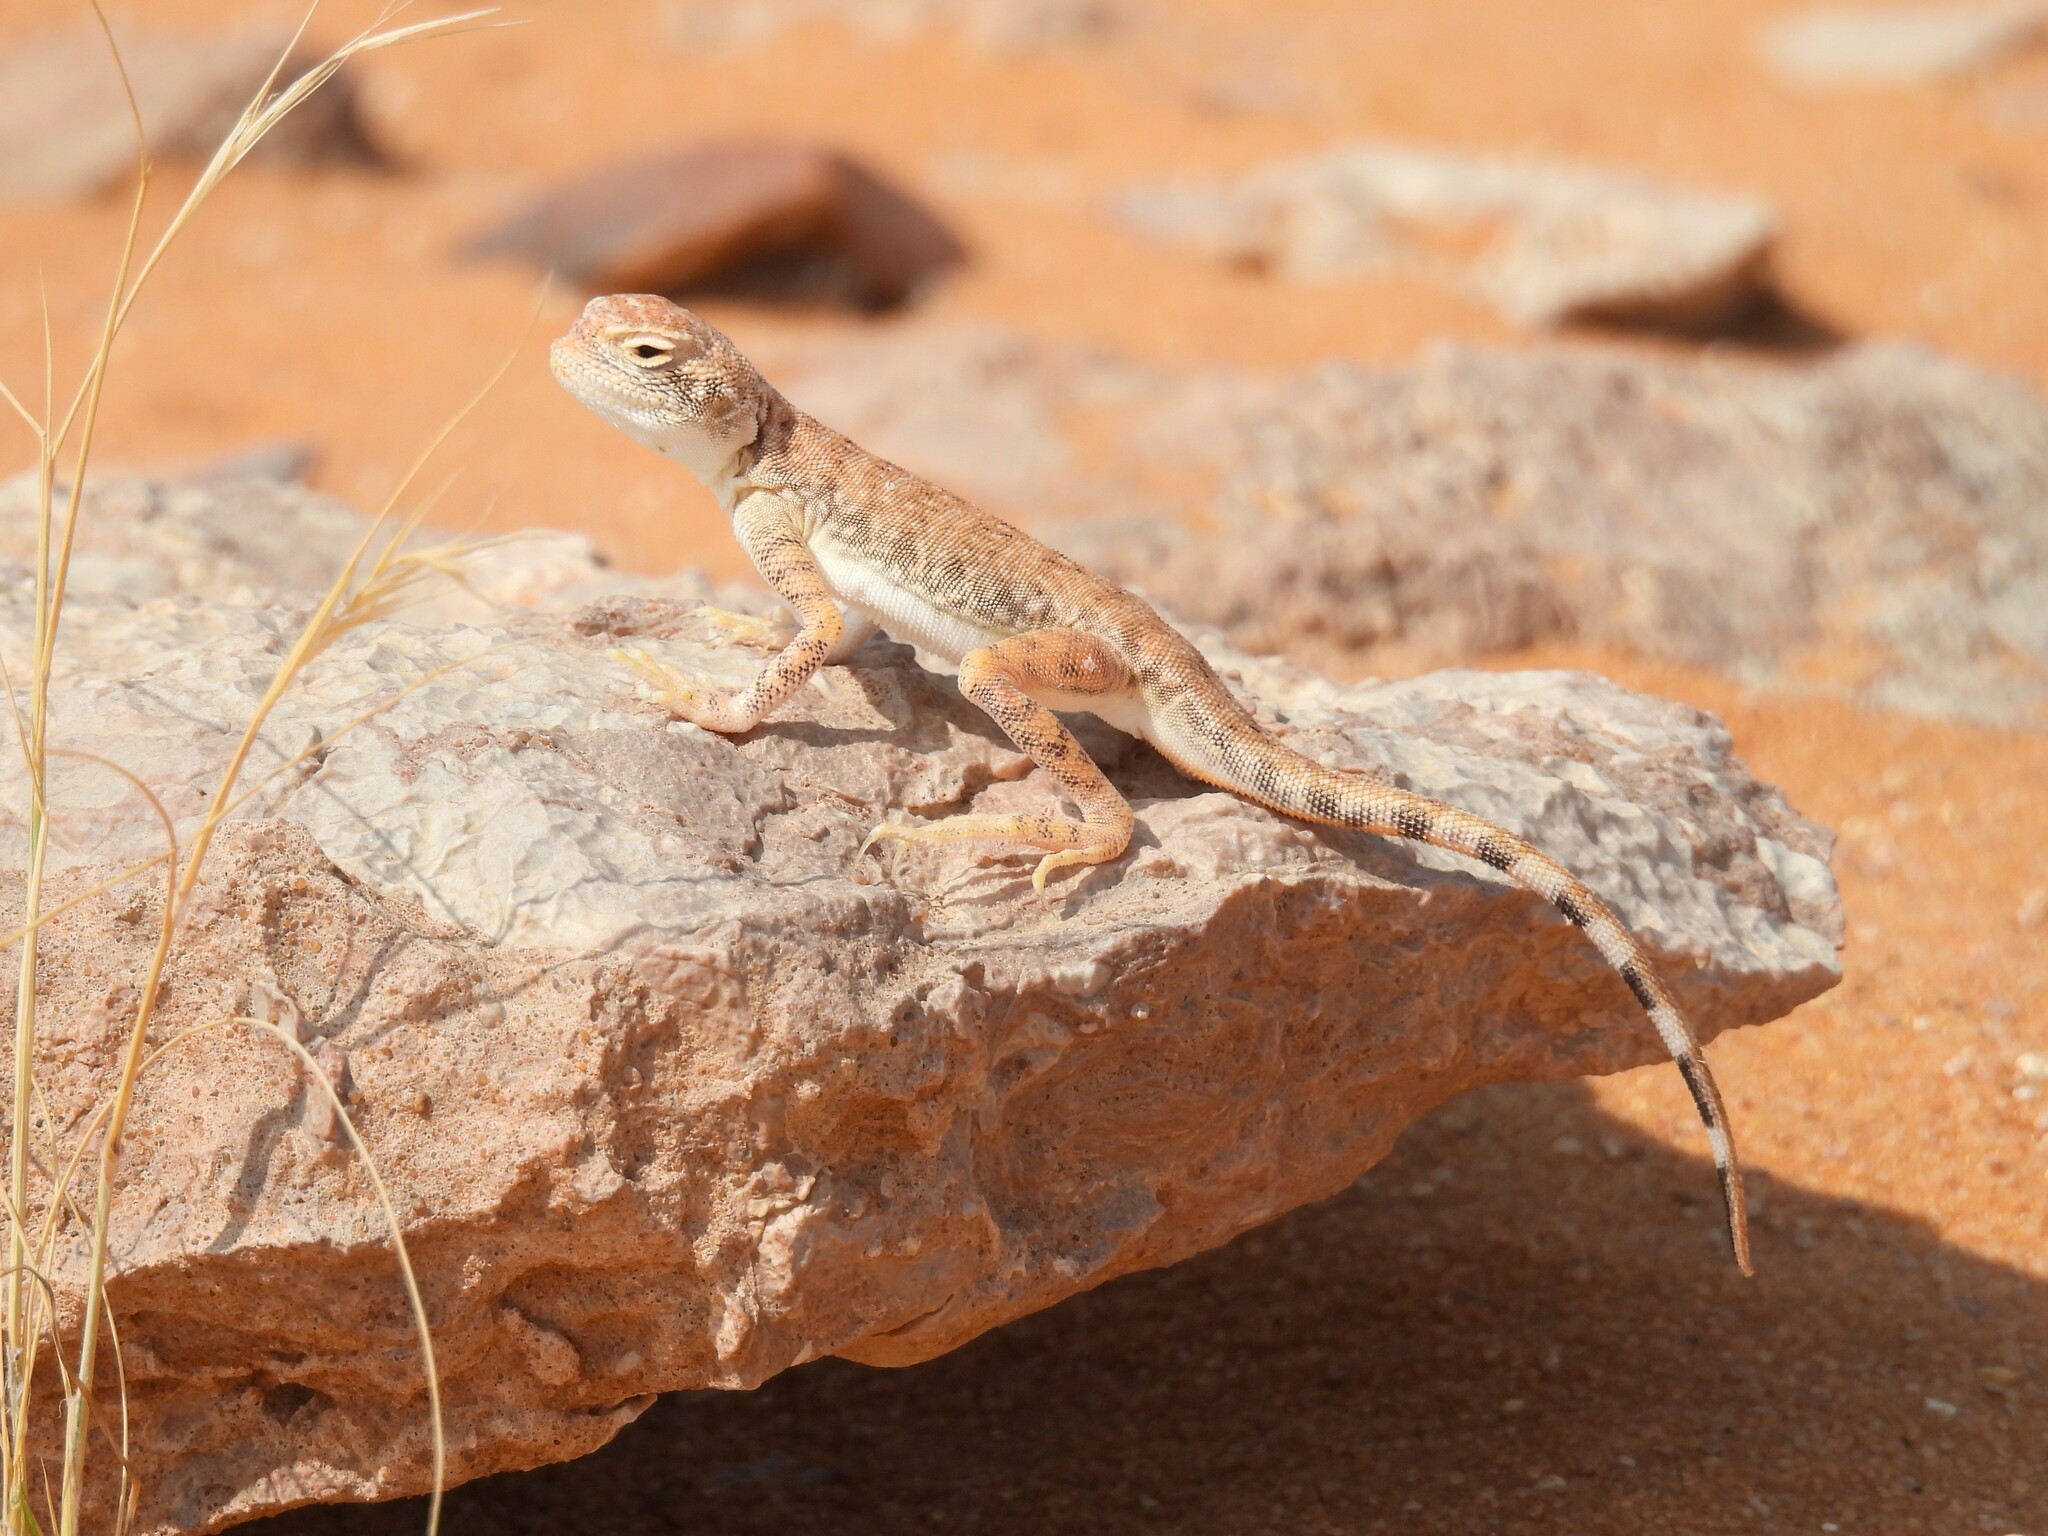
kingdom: Animalia
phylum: Chordata
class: Squamata
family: Agamidae
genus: Phrynocephalus
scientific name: Phrynocephalus arabicus
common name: Arabian toad-headed agama
